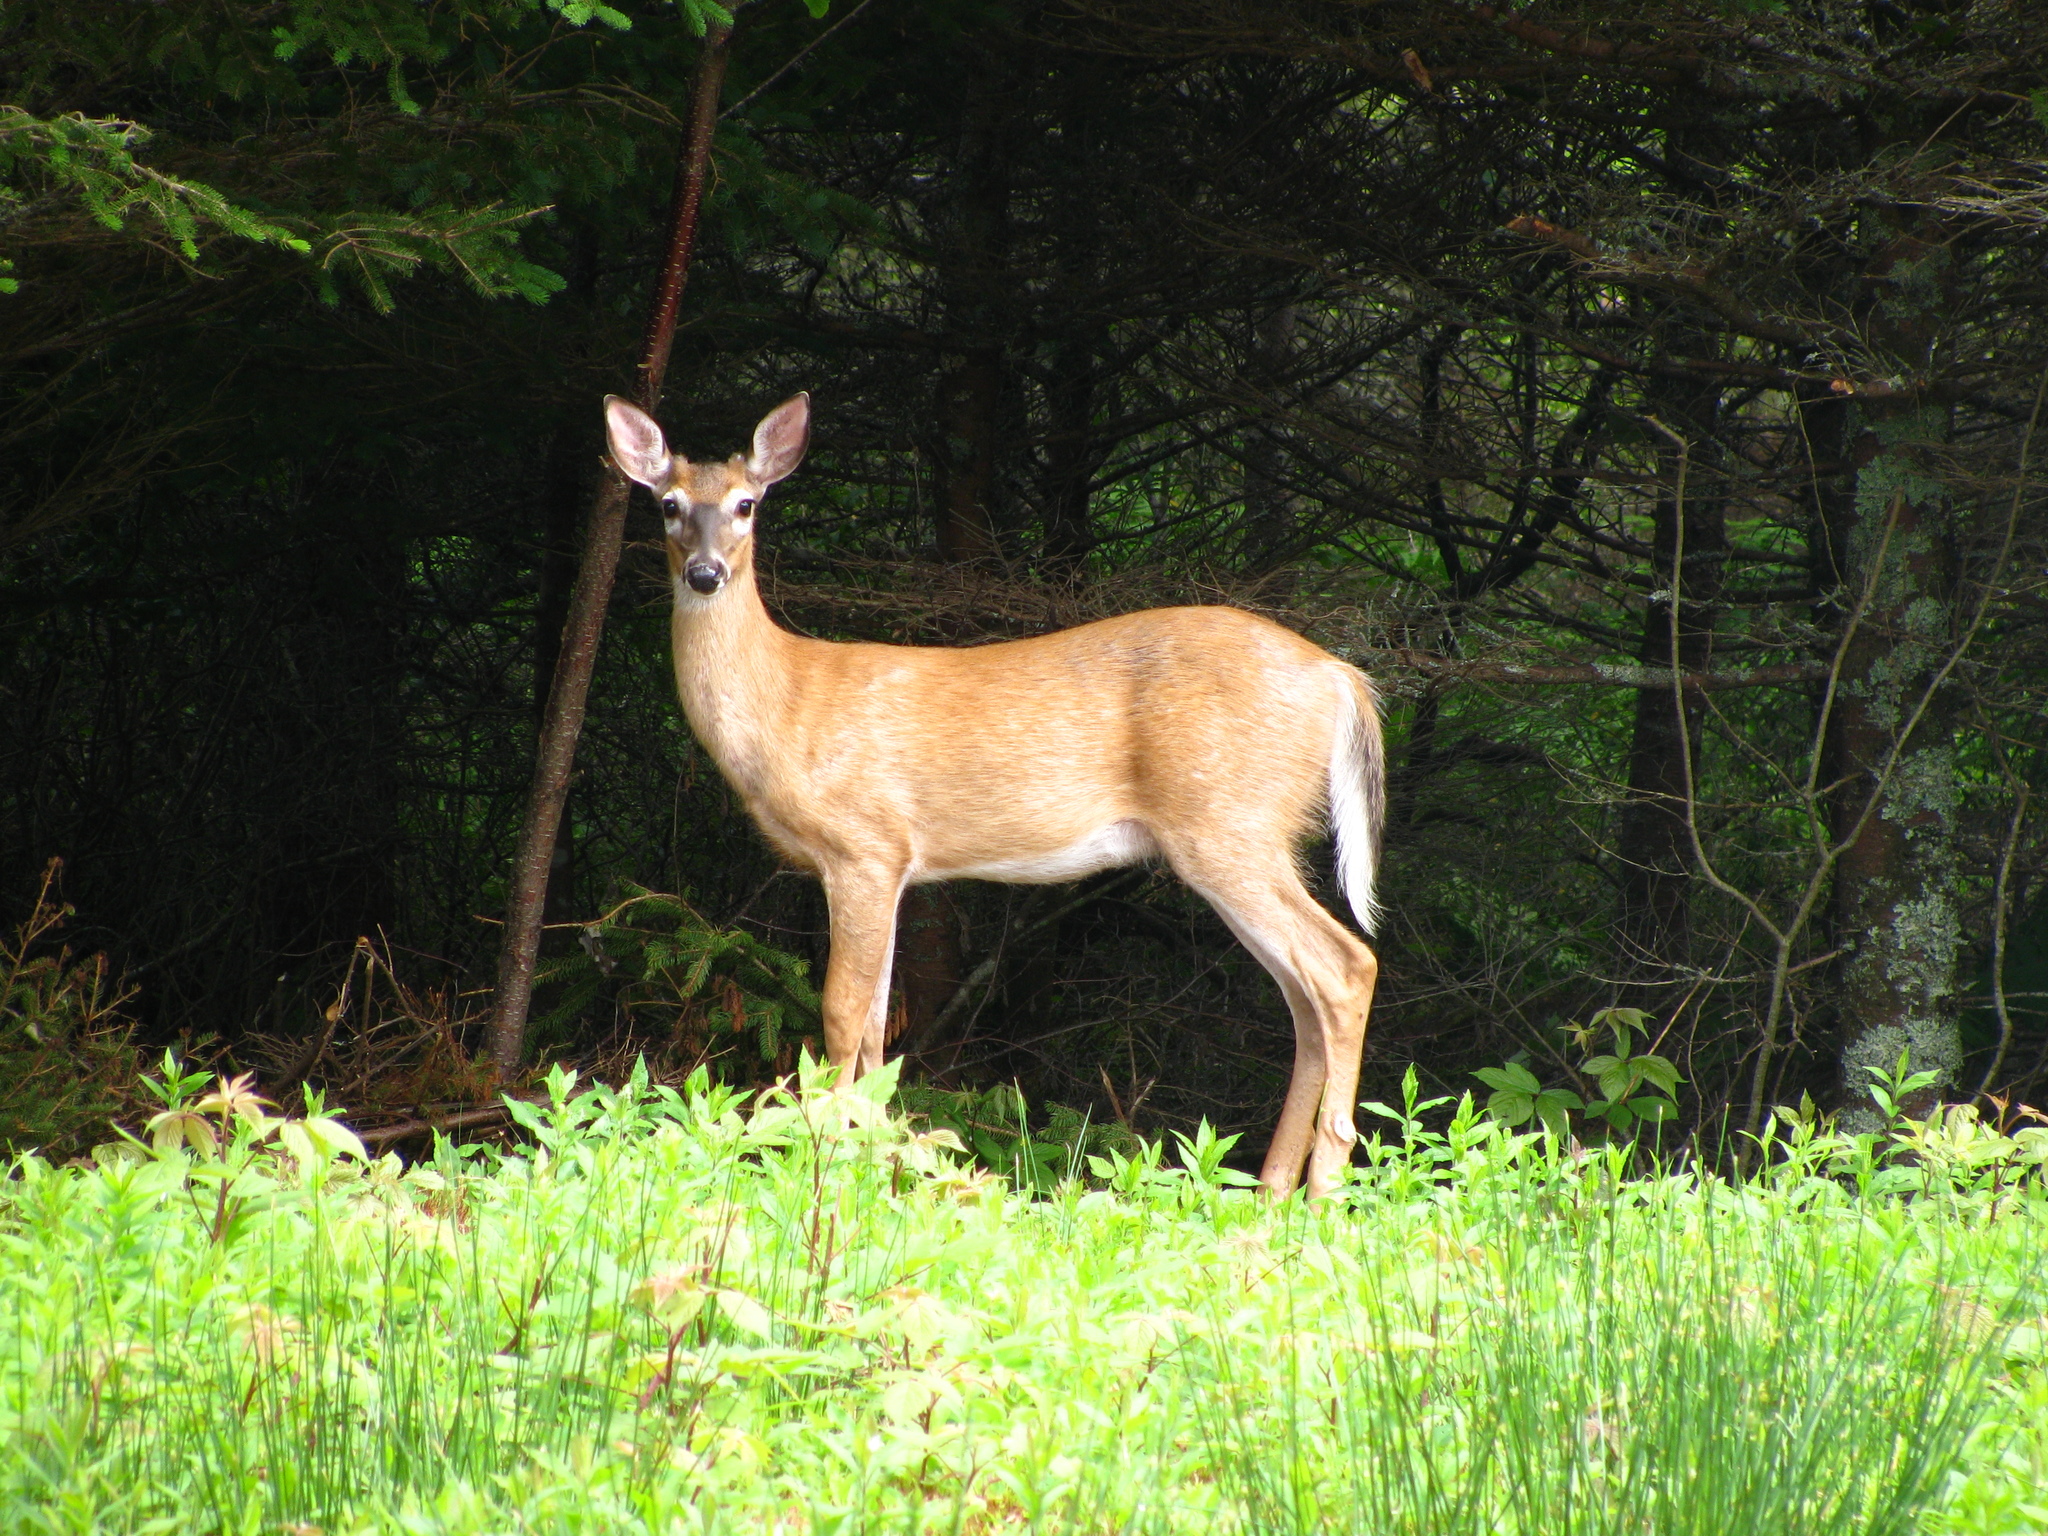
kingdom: Animalia
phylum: Chordata
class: Mammalia
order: Artiodactyla
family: Cervidae
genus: Odocoileus
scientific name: Odocoileus virginianus
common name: White-tailed deer
